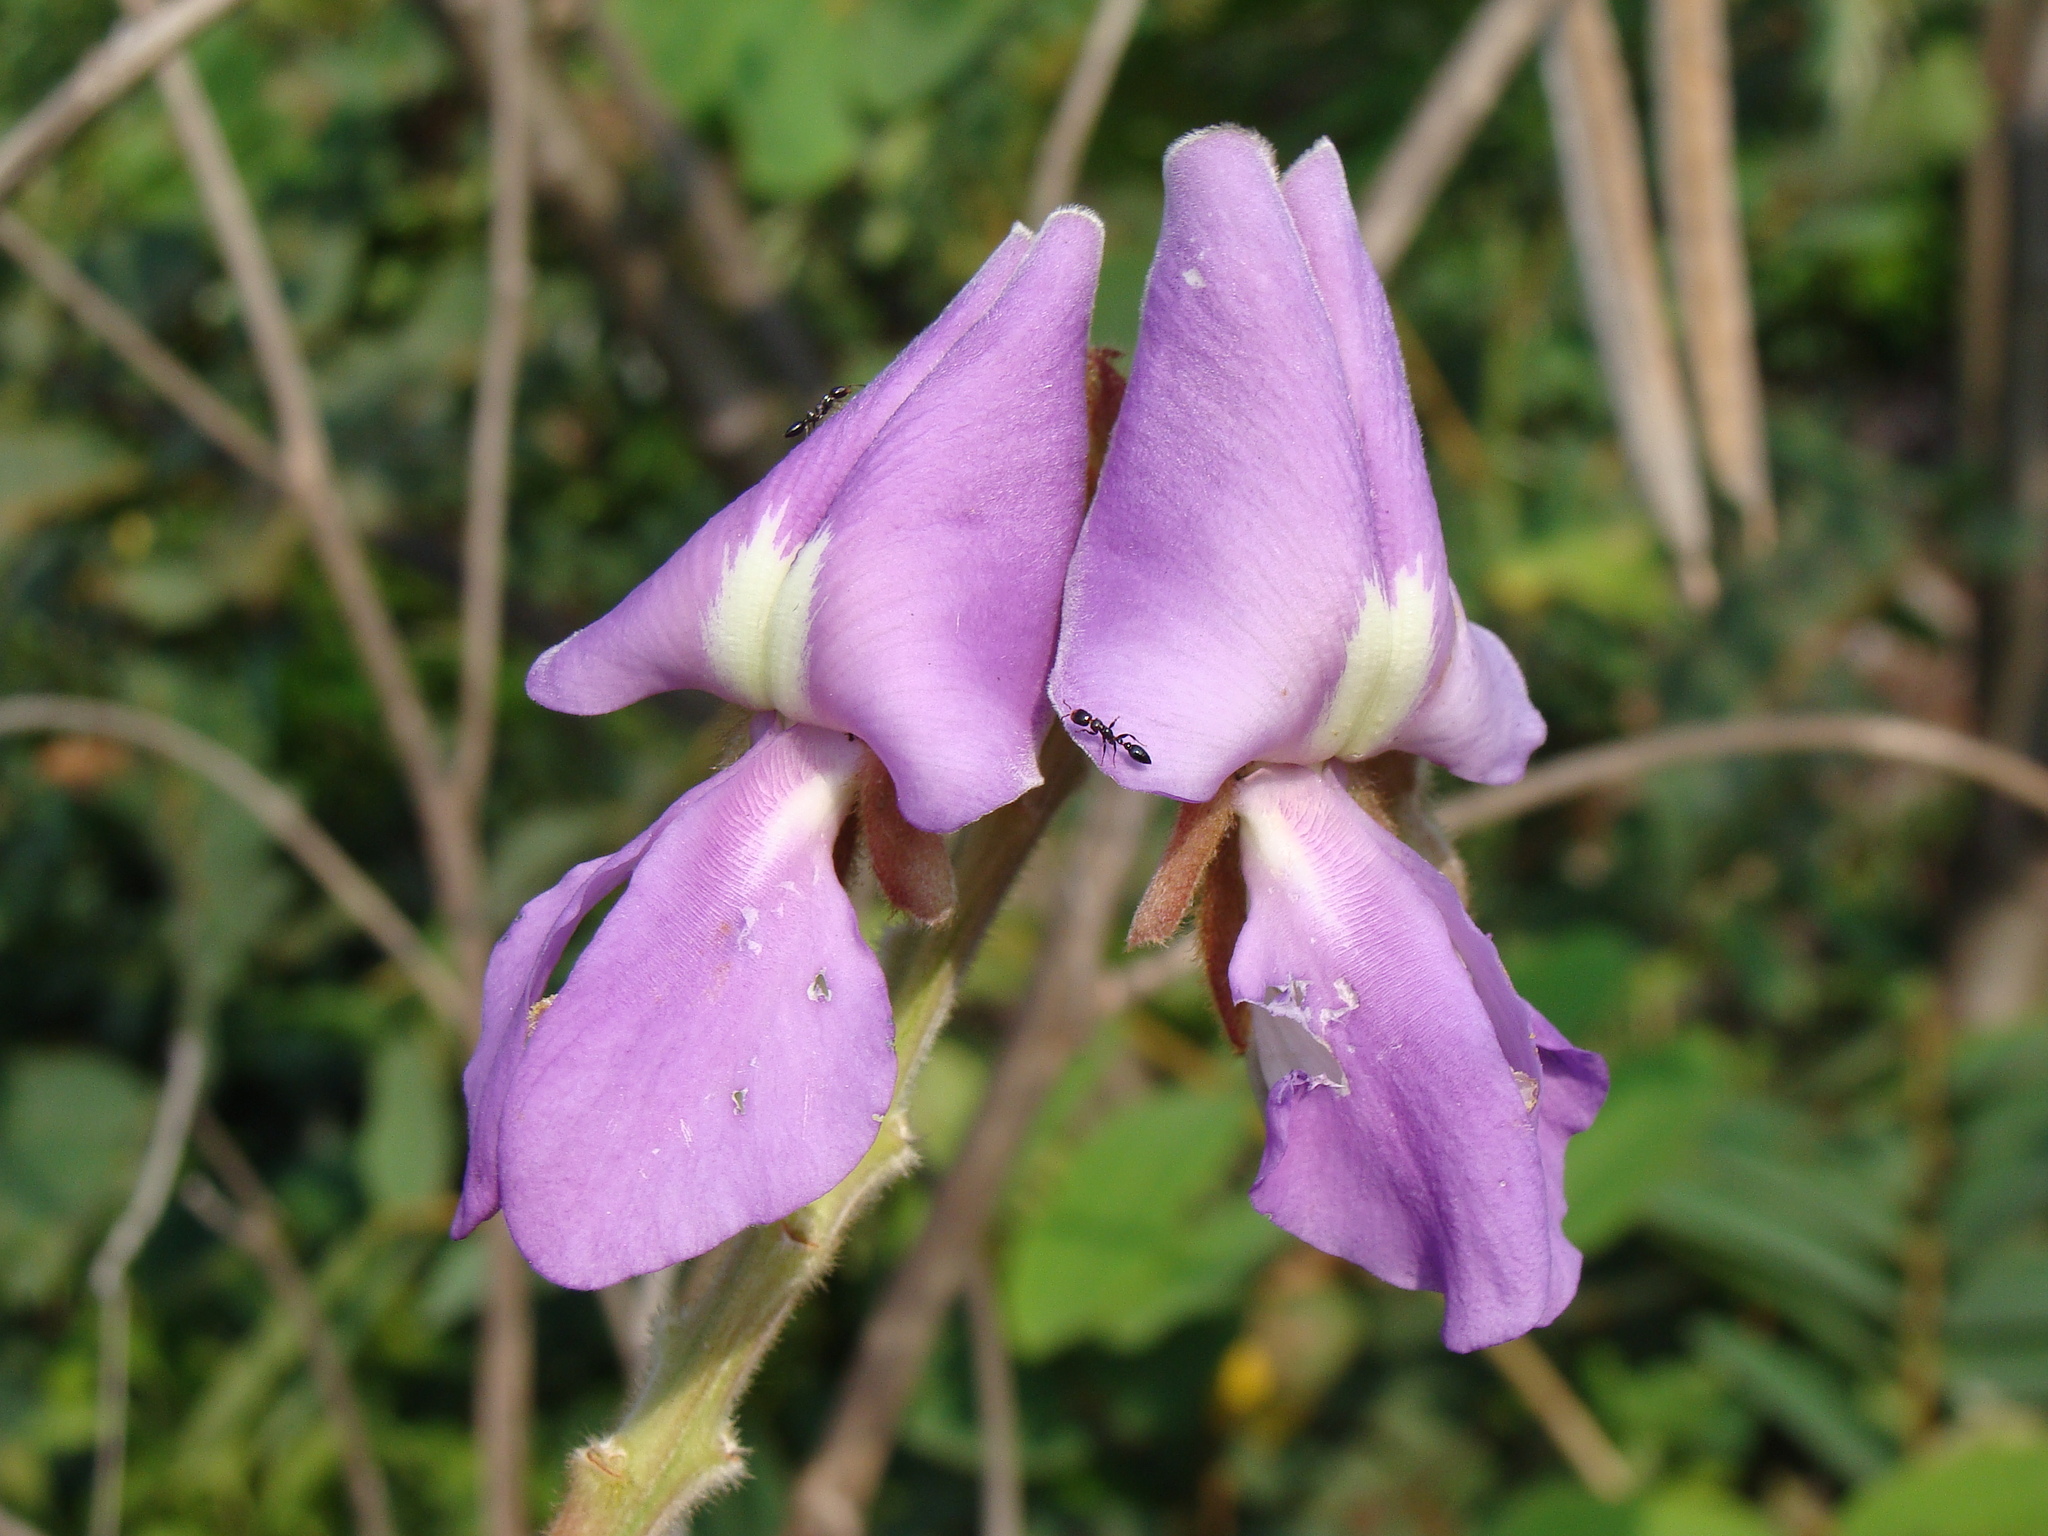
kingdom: Plantae
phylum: Tracheophyta
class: Magnoliopsida
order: Fabales
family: Fabaceae
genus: Tephrosia
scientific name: Tephrosia vogelii
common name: Vogel tephrosia
